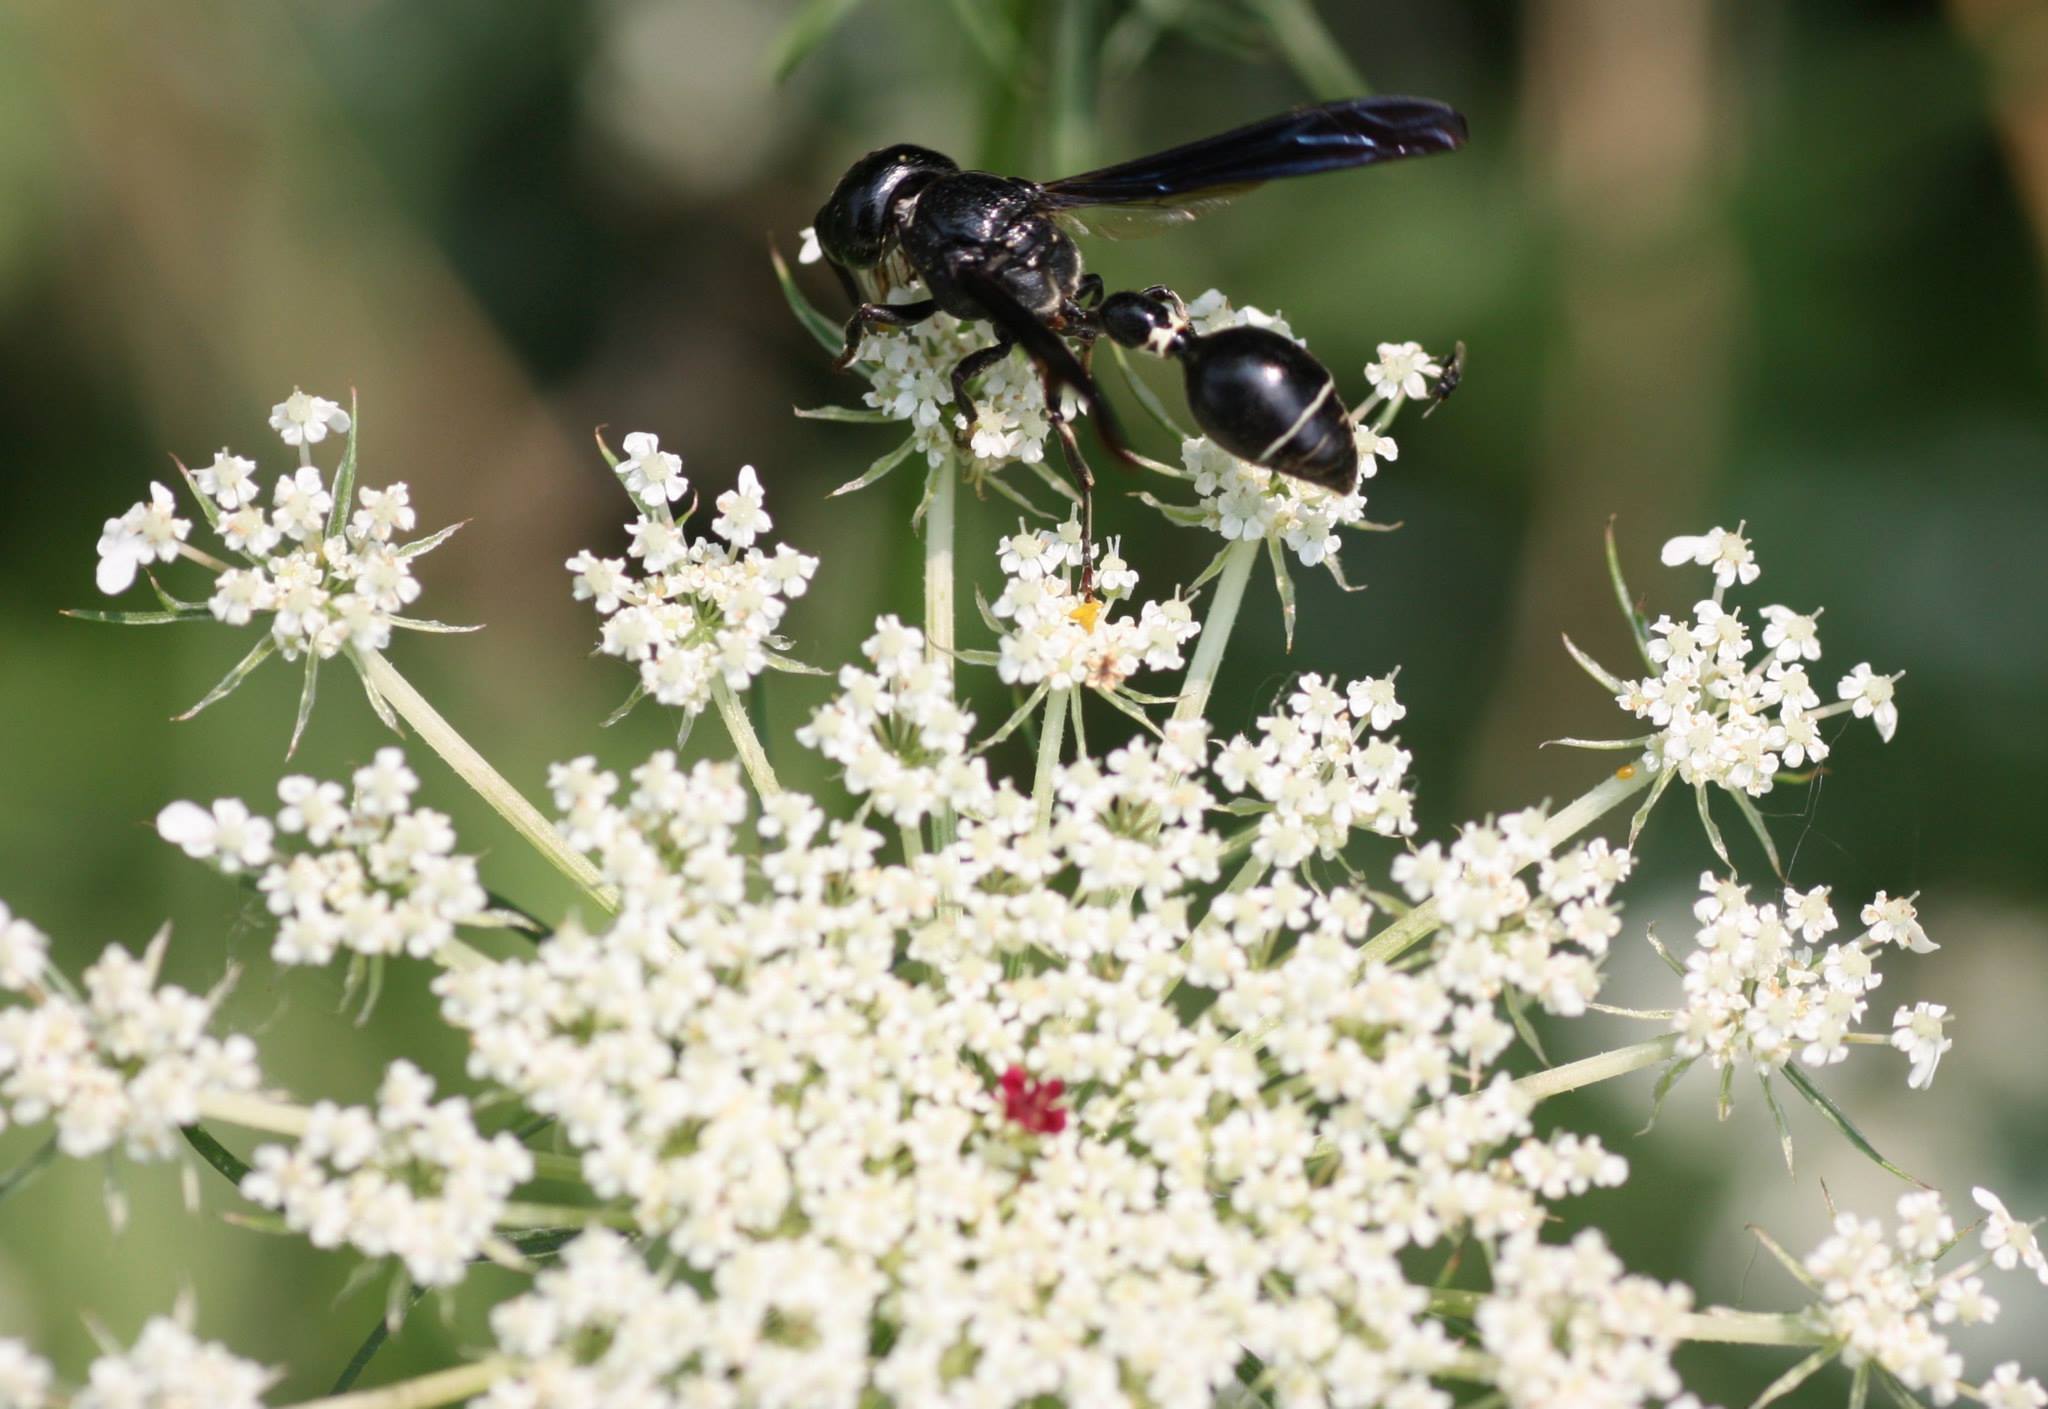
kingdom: Animalia
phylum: Arthropoda
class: Insecta
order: Hymenoptera
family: Eumenidae
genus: Zethus
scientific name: Zethus spinipes
